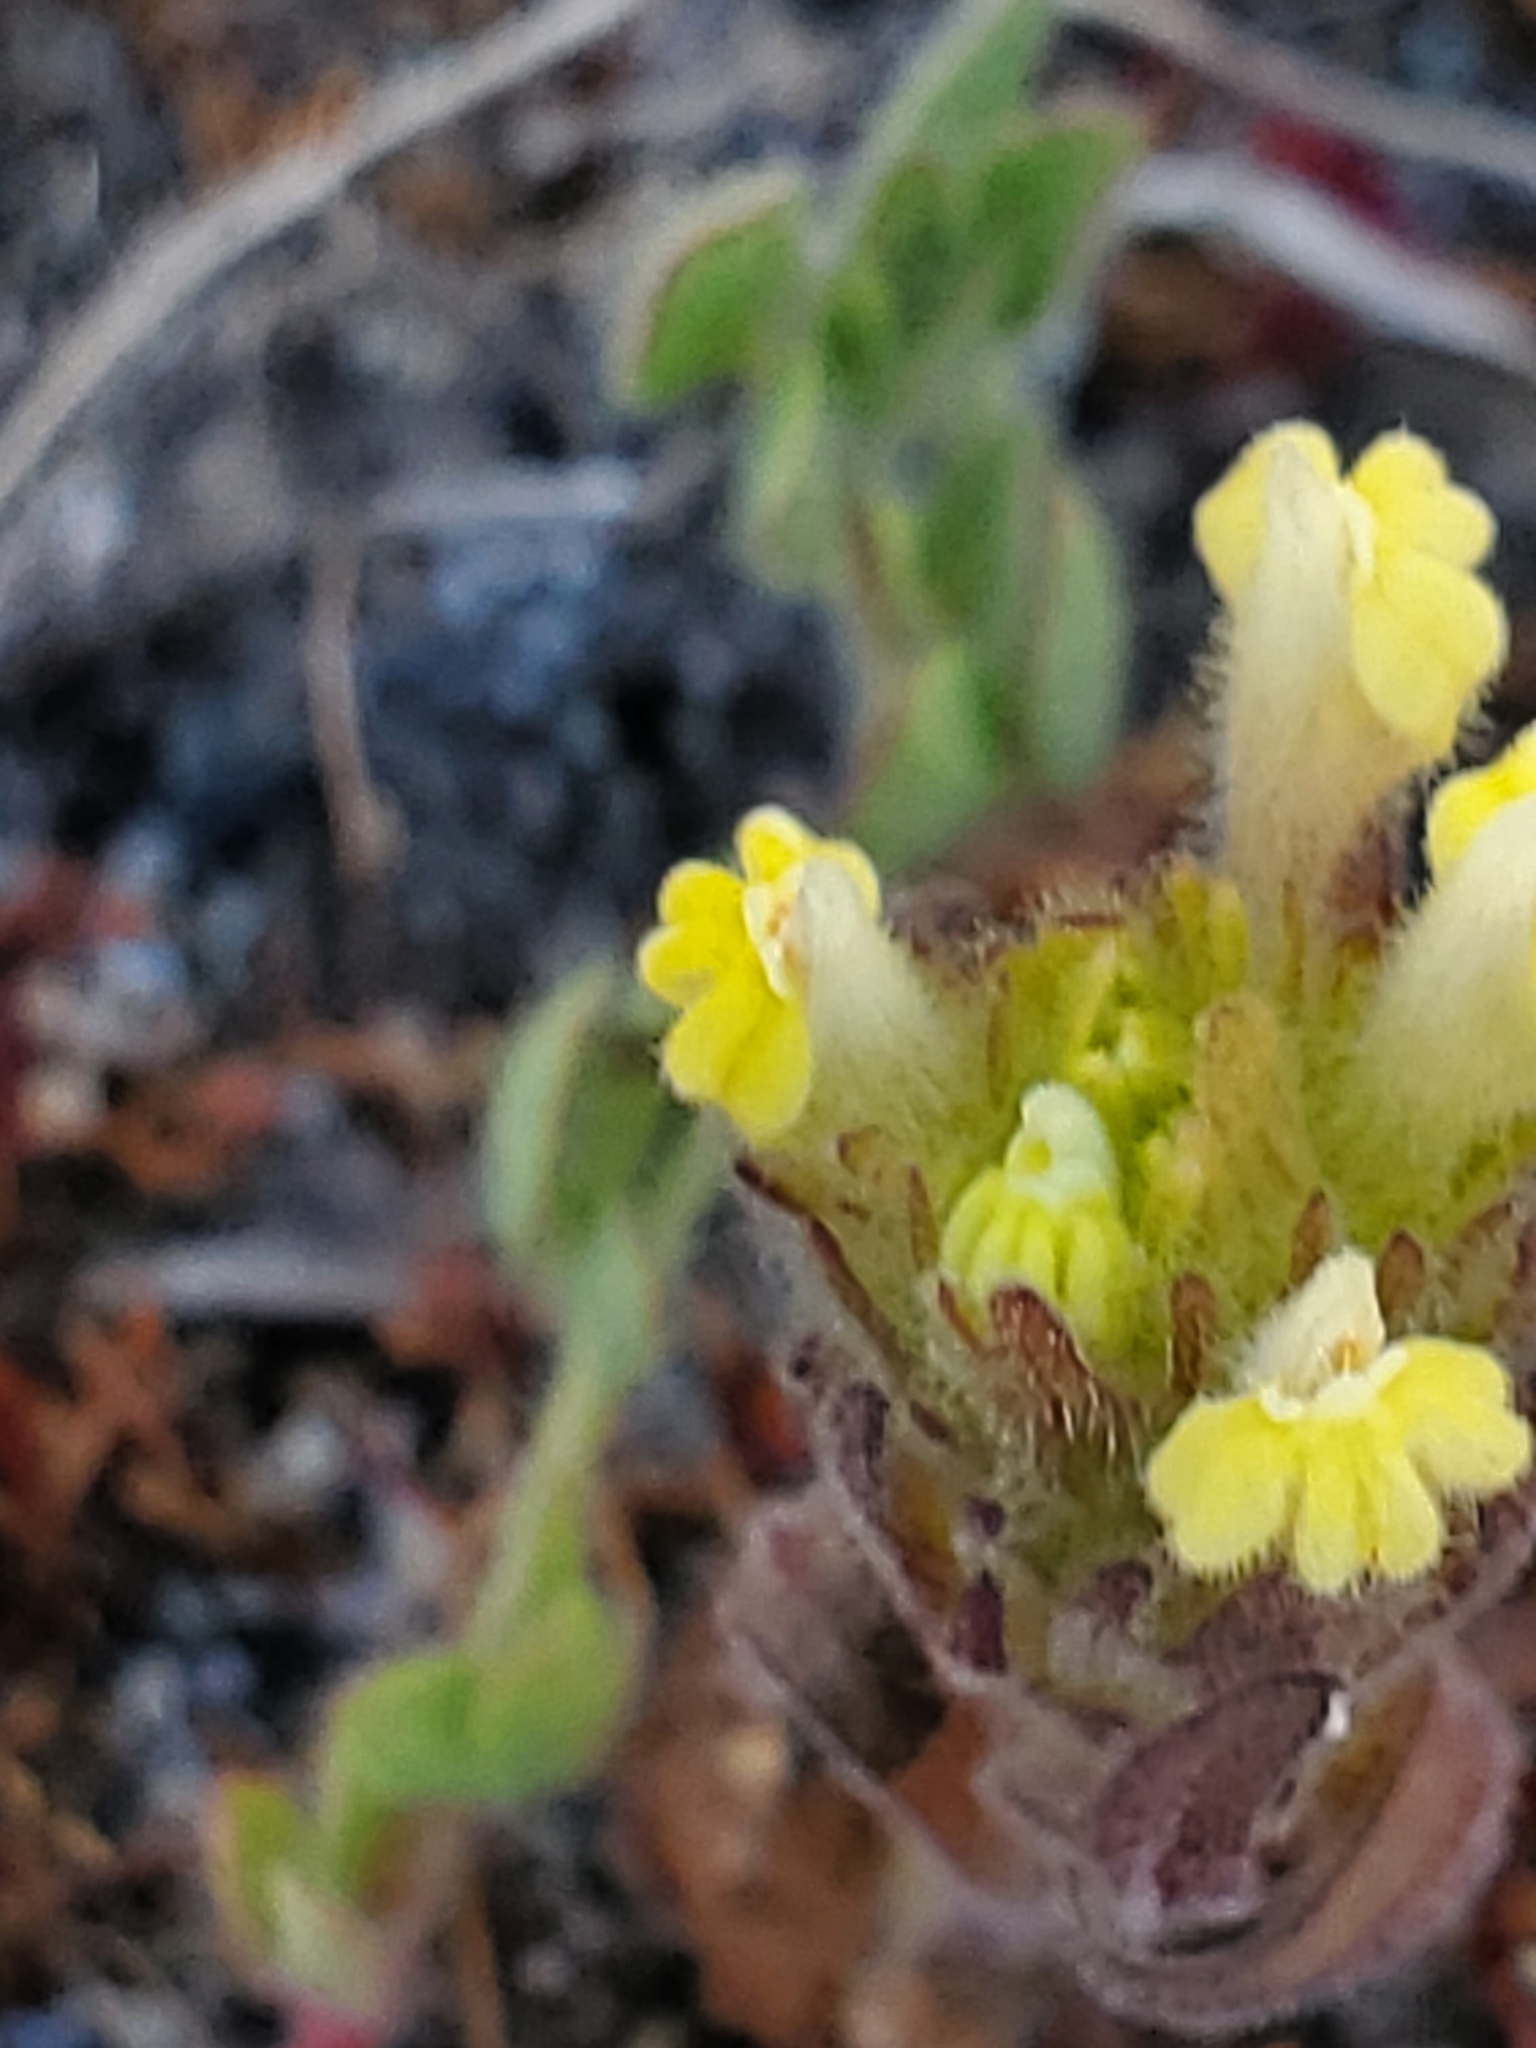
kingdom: Plantae
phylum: Tracheophyta
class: Magnoliopsida
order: Lamiales
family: Orobanchaceae
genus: Castilleja
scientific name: Castilleja victoriae
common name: Victoria paintbrush
